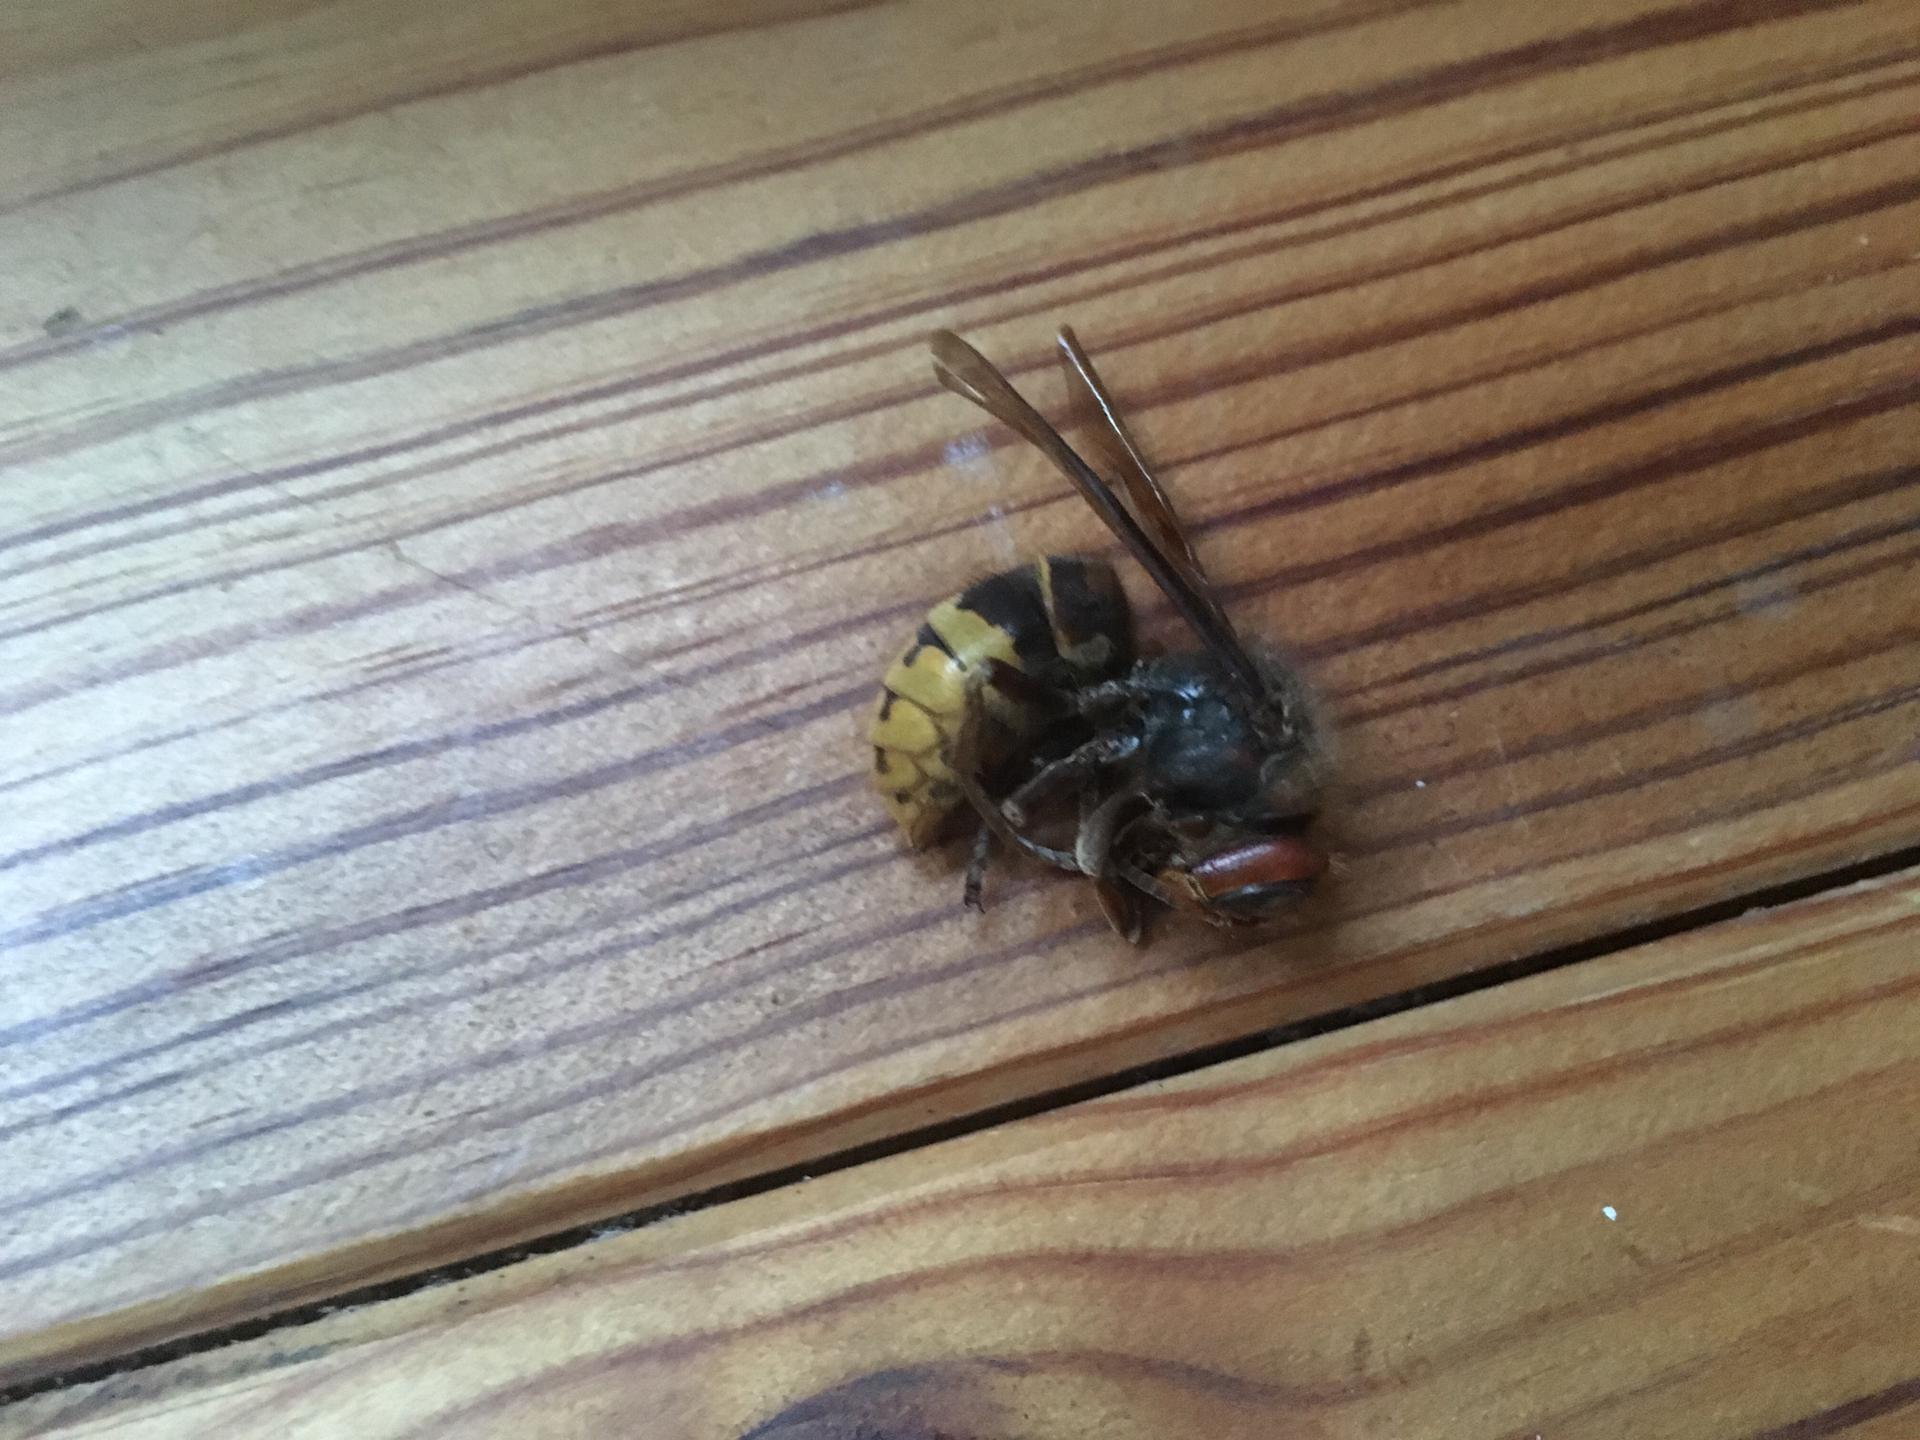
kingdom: Animalia
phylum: Arthropoda
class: Insecta
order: Hymenoptera
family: Vespidae
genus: Vespa
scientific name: Vespa crabro
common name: Hornet
